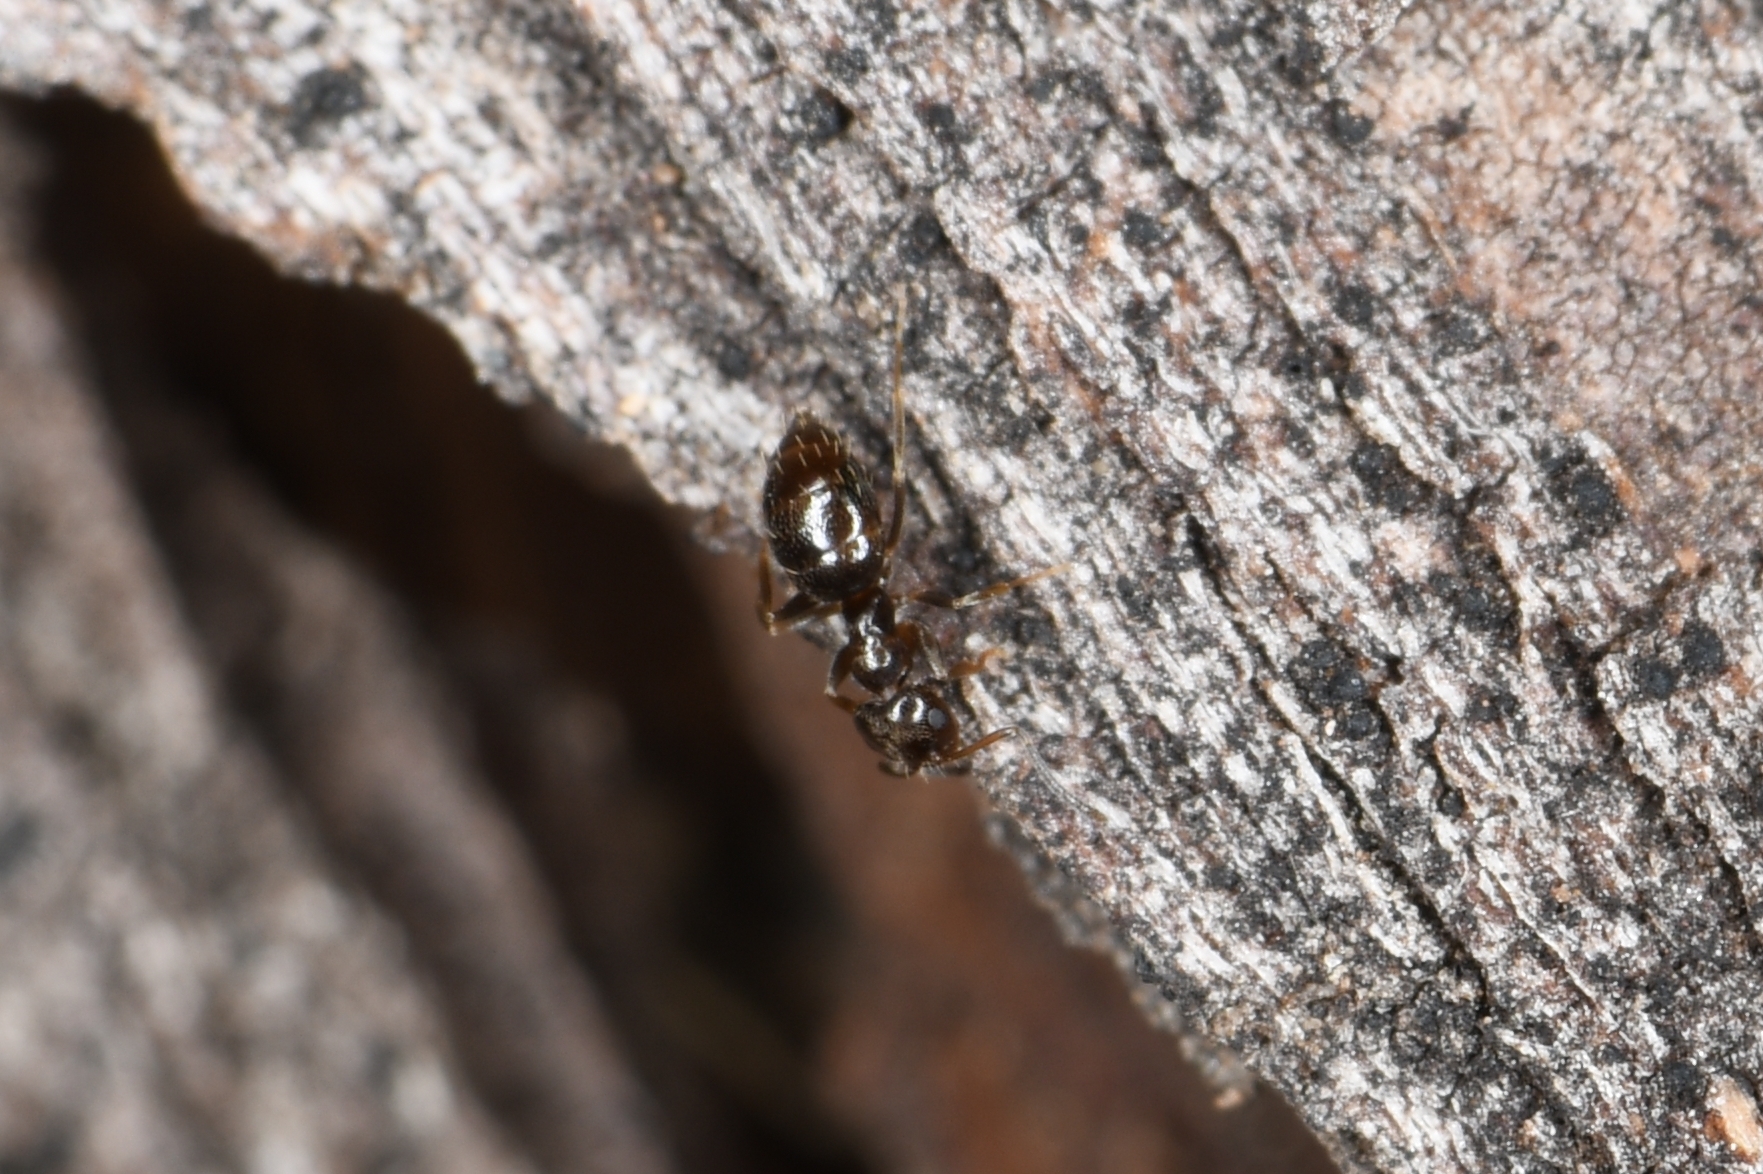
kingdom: Animalia
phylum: Arthropoda
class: Insecta
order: Hymenoptera
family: Formicidae
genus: Brachymyrmex
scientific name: Brachymyrmex patagonicus
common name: Dark rover ant
